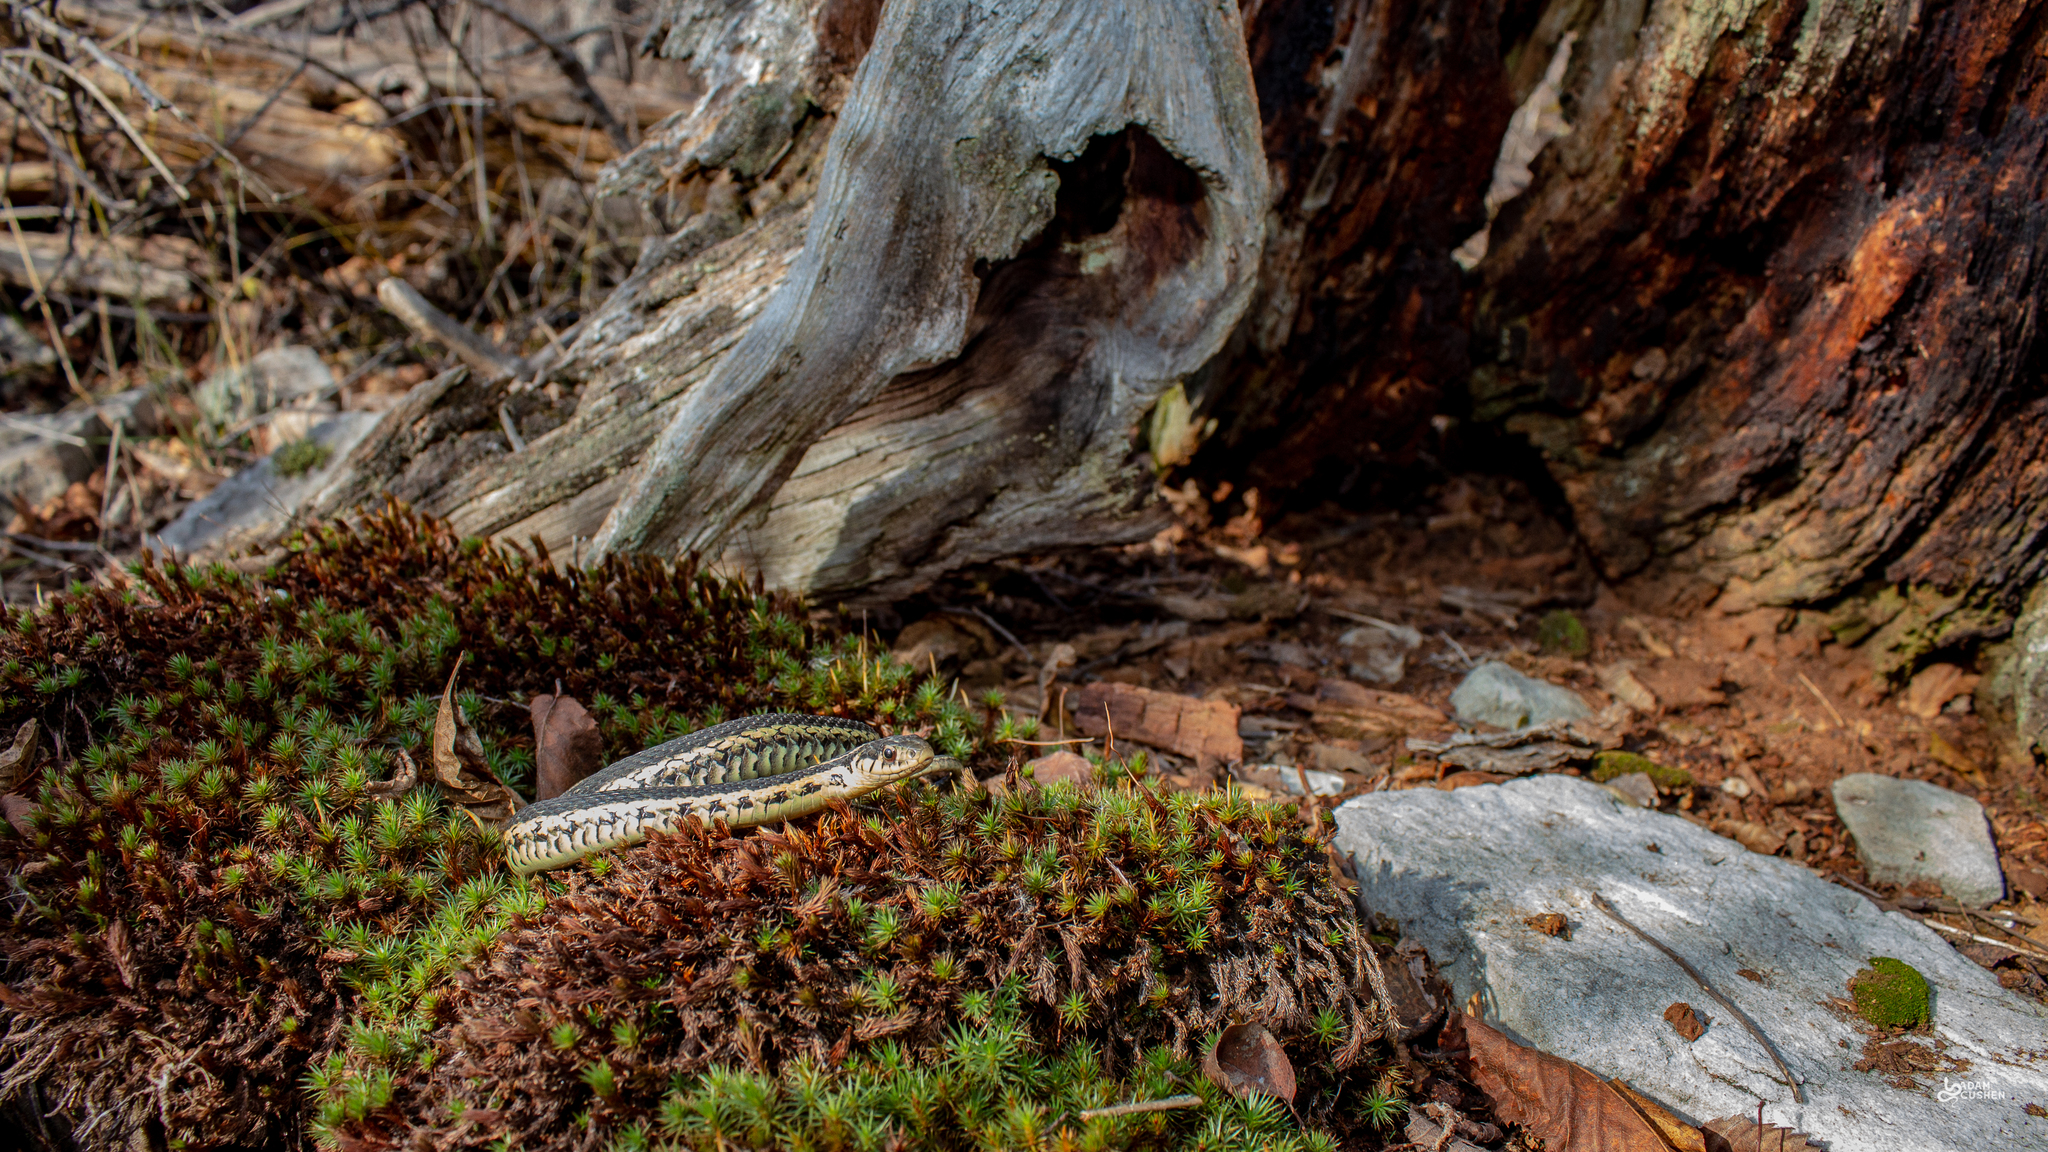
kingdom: Animalia
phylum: Chordata
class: Squamata
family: Colubridae
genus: Thamnophis
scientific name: Thamnophis sirtalis
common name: Common garter snake
